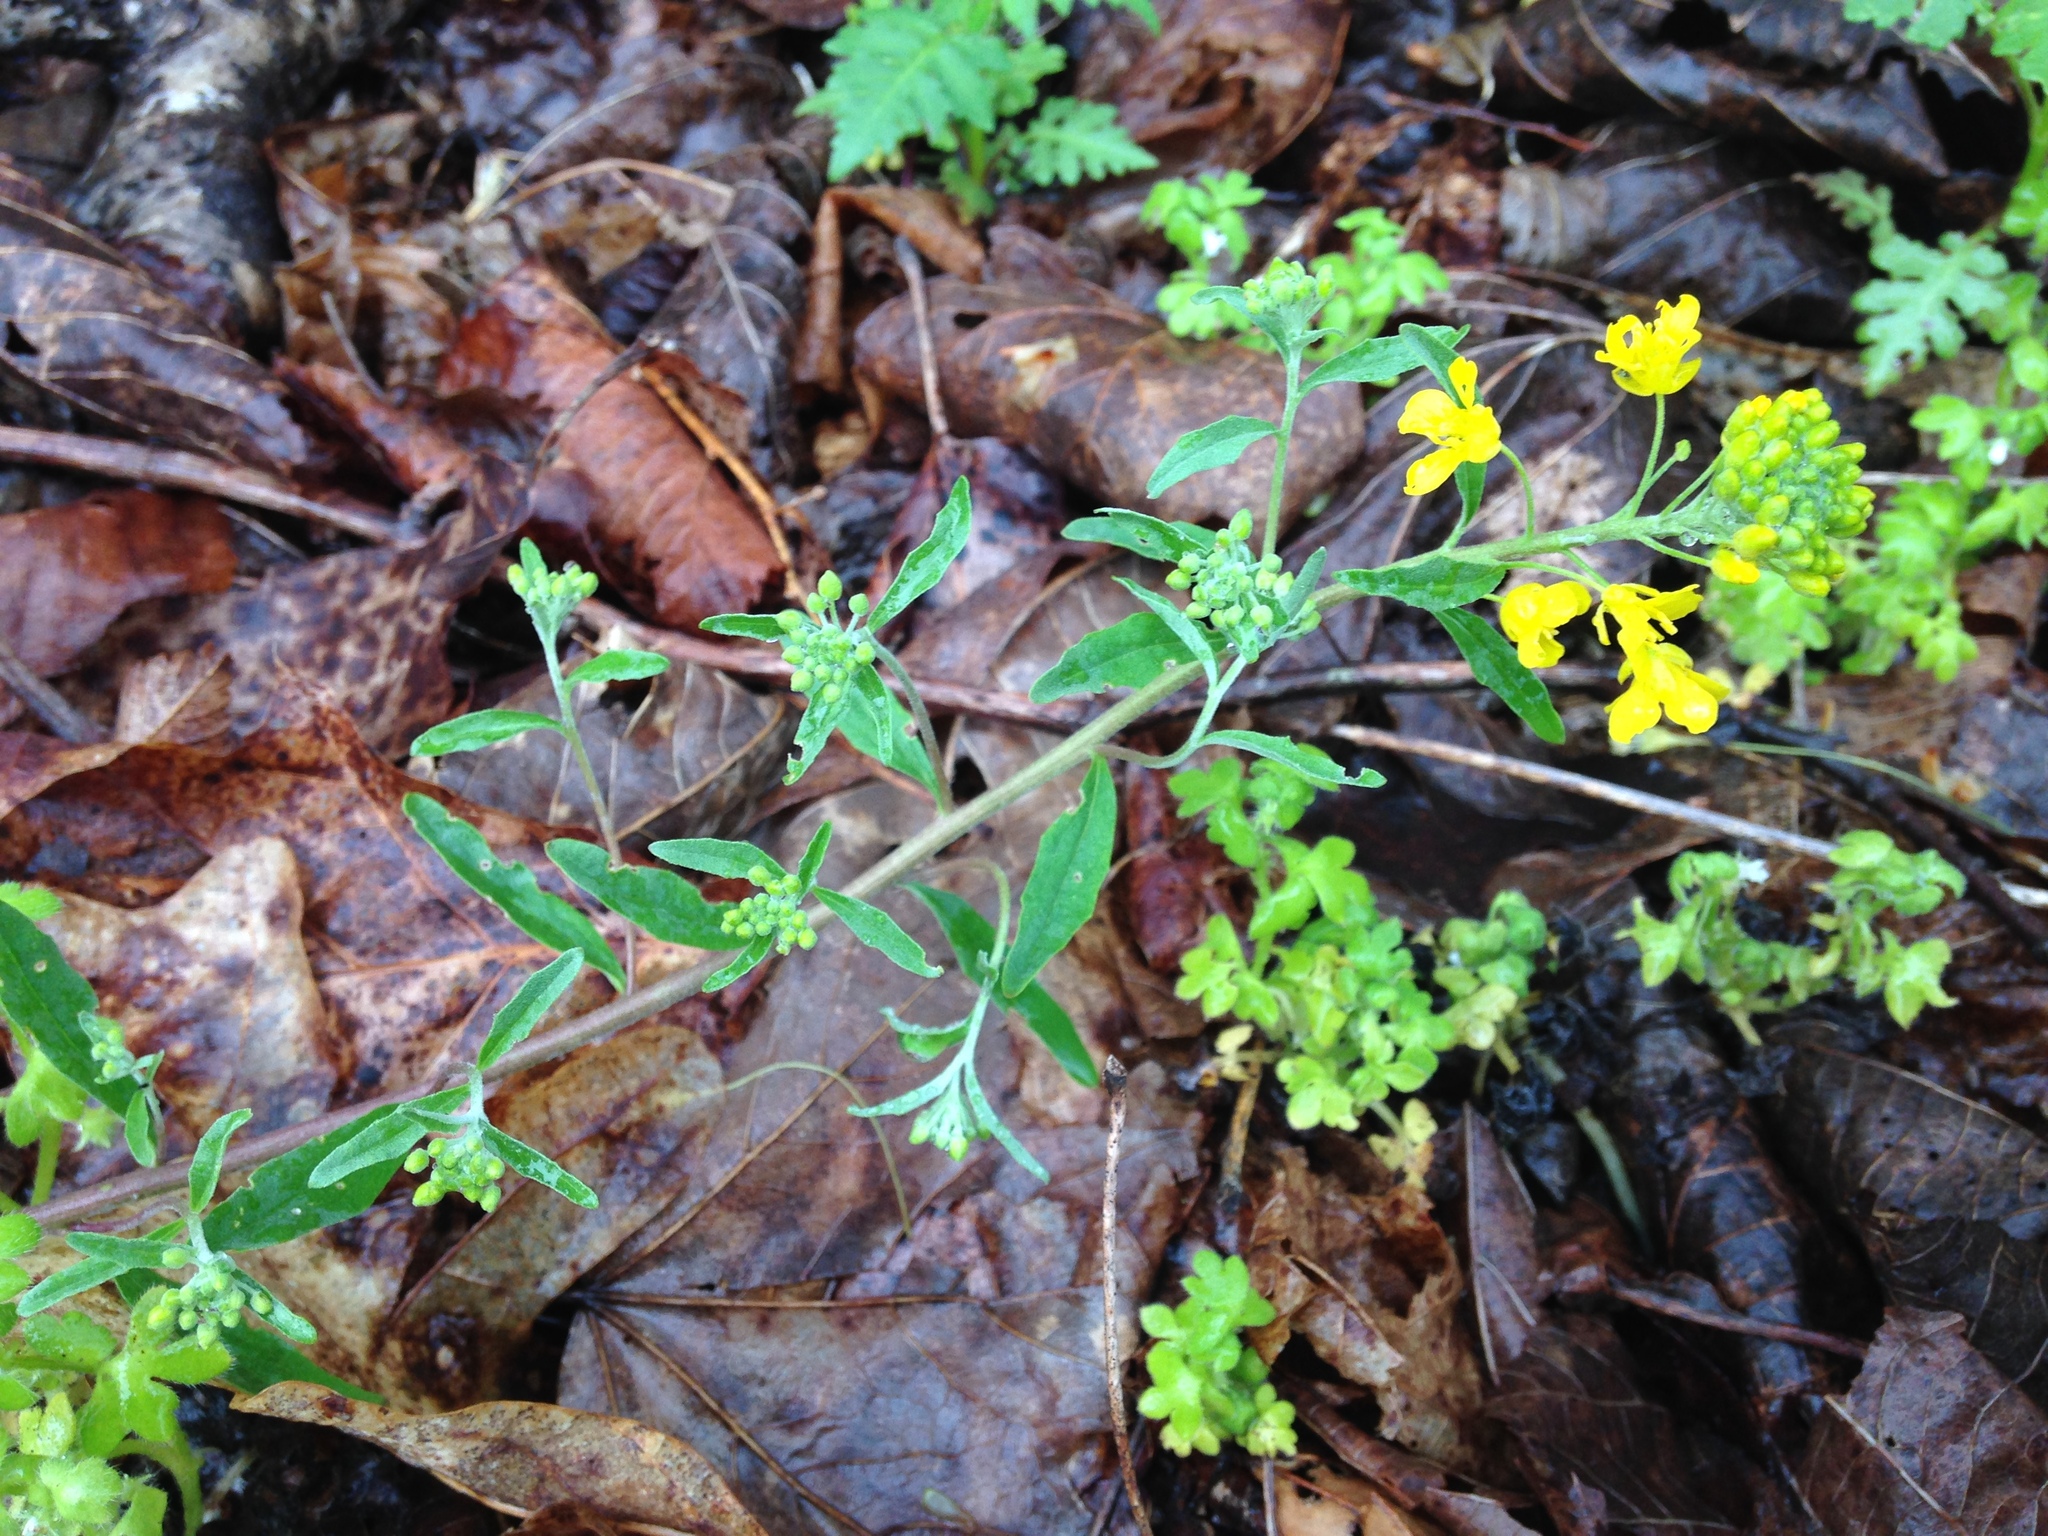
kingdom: Plantae
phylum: Tracheophyta
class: Magnoliopsida
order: Brassicales
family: Brassicaceae
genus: Physaria
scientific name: Physaria globosa
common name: Globe bladderpod
